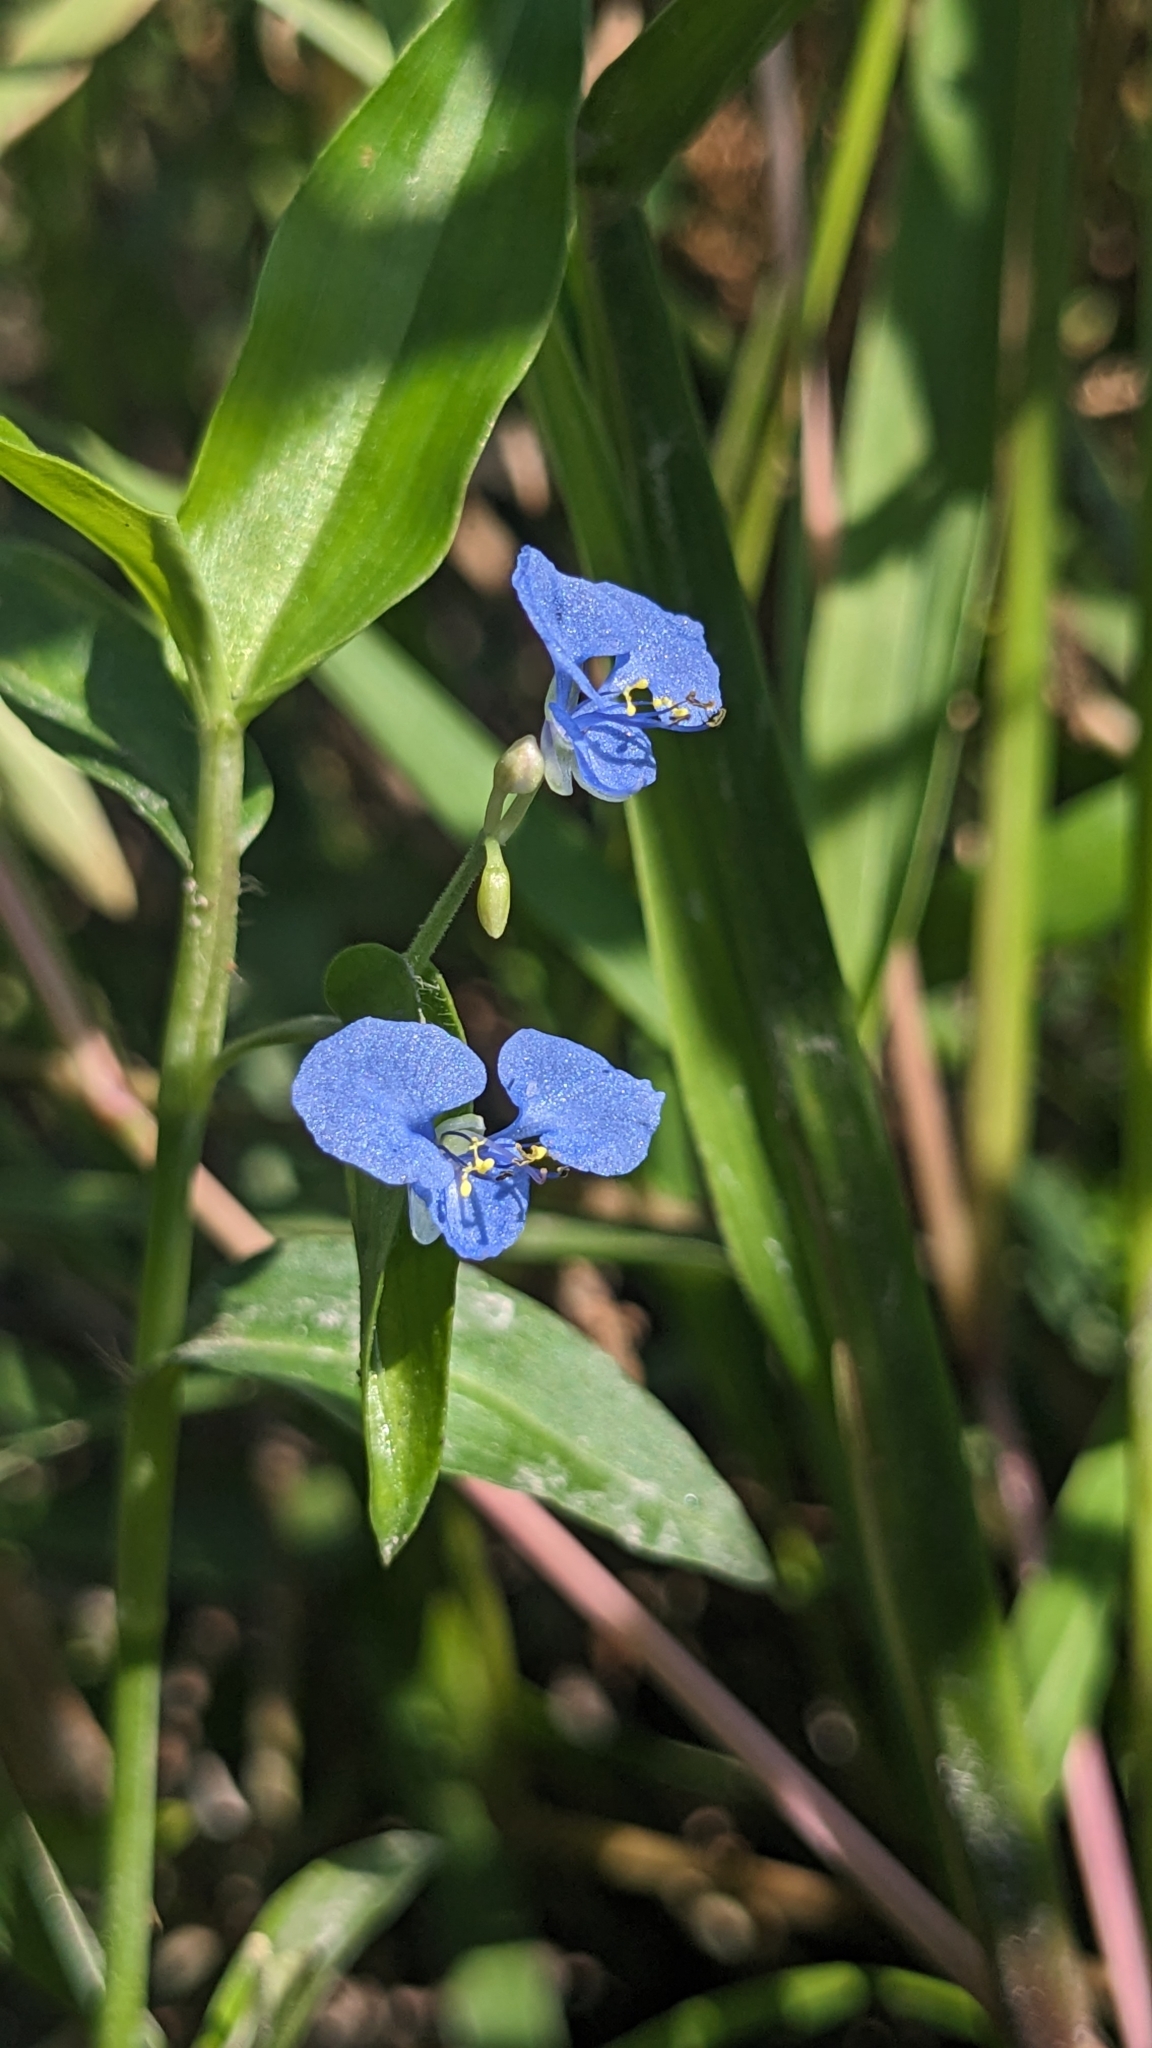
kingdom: Plantae
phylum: Tracheophyta
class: Liliopsida
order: Commelinales
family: Commelinaceae
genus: Commelina
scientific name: Commelina diffusa
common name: Climbing dayflower
